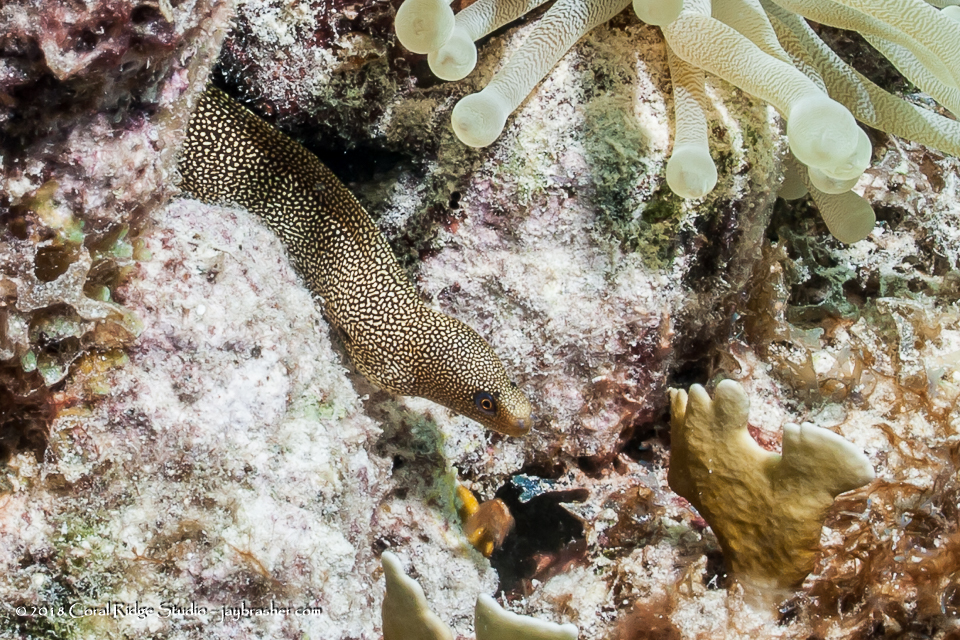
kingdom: Animalia
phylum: Chordata
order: Anguilliformes
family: Muraenidae
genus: Gymnothorax
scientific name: Gymnothorax miliaris
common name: Goldentail moray
